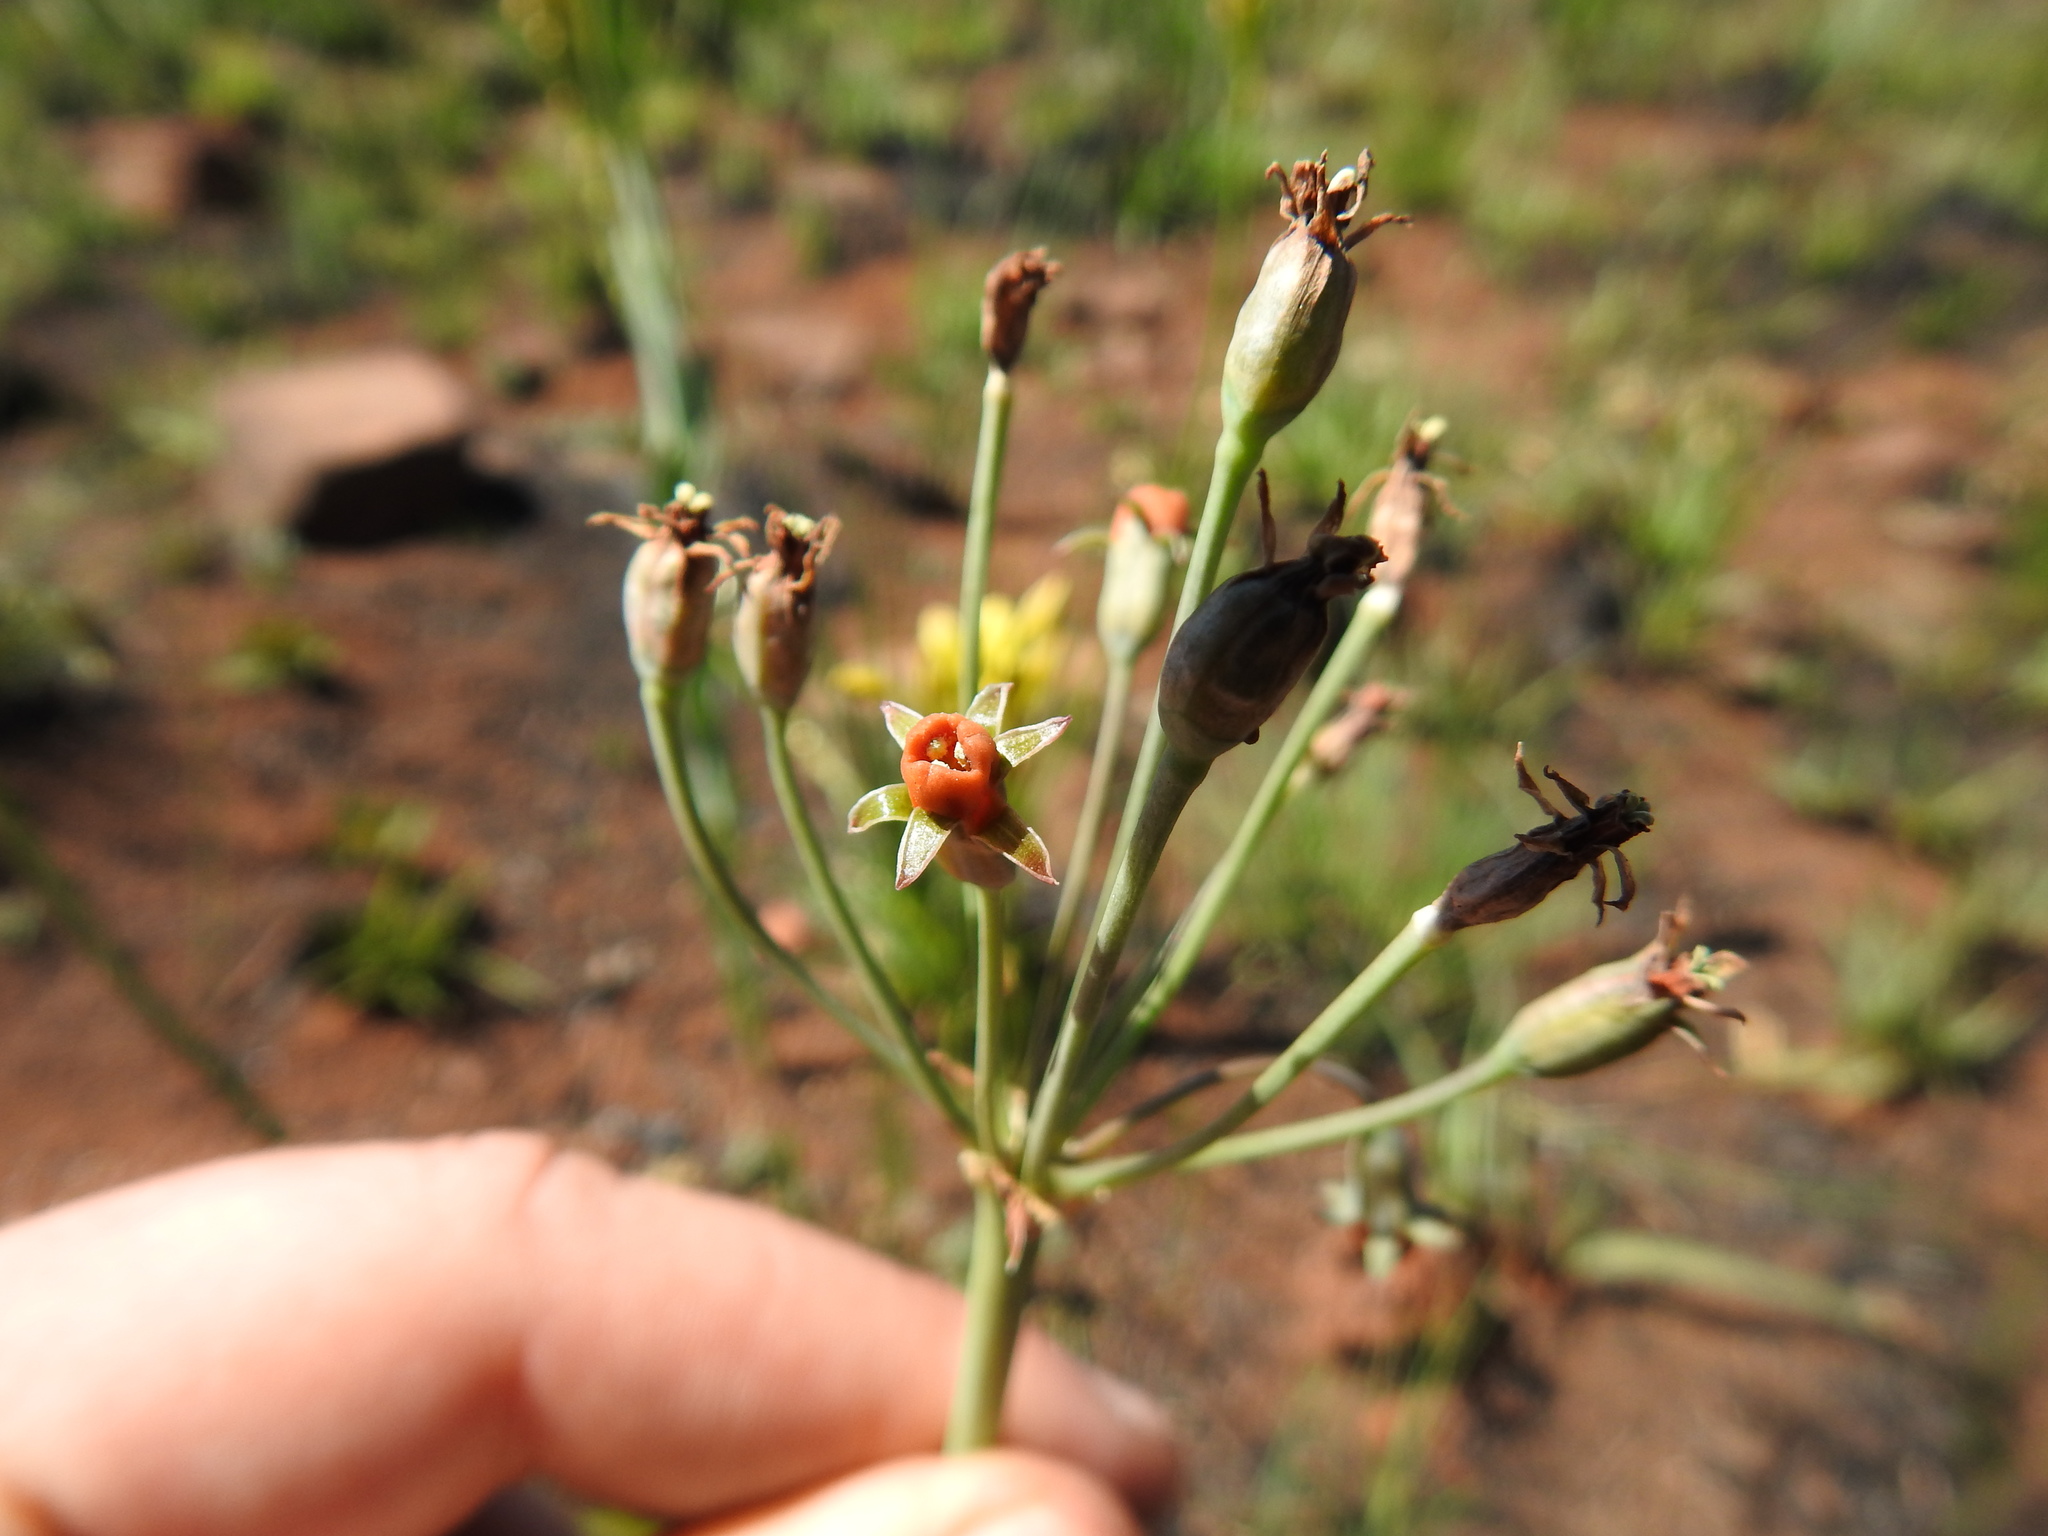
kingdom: Plantae
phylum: Tracheophyta
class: Liliopsida
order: Asparagales
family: Amaryllidaceae
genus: Tulbaghia
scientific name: Tulbaghia acutiloba
